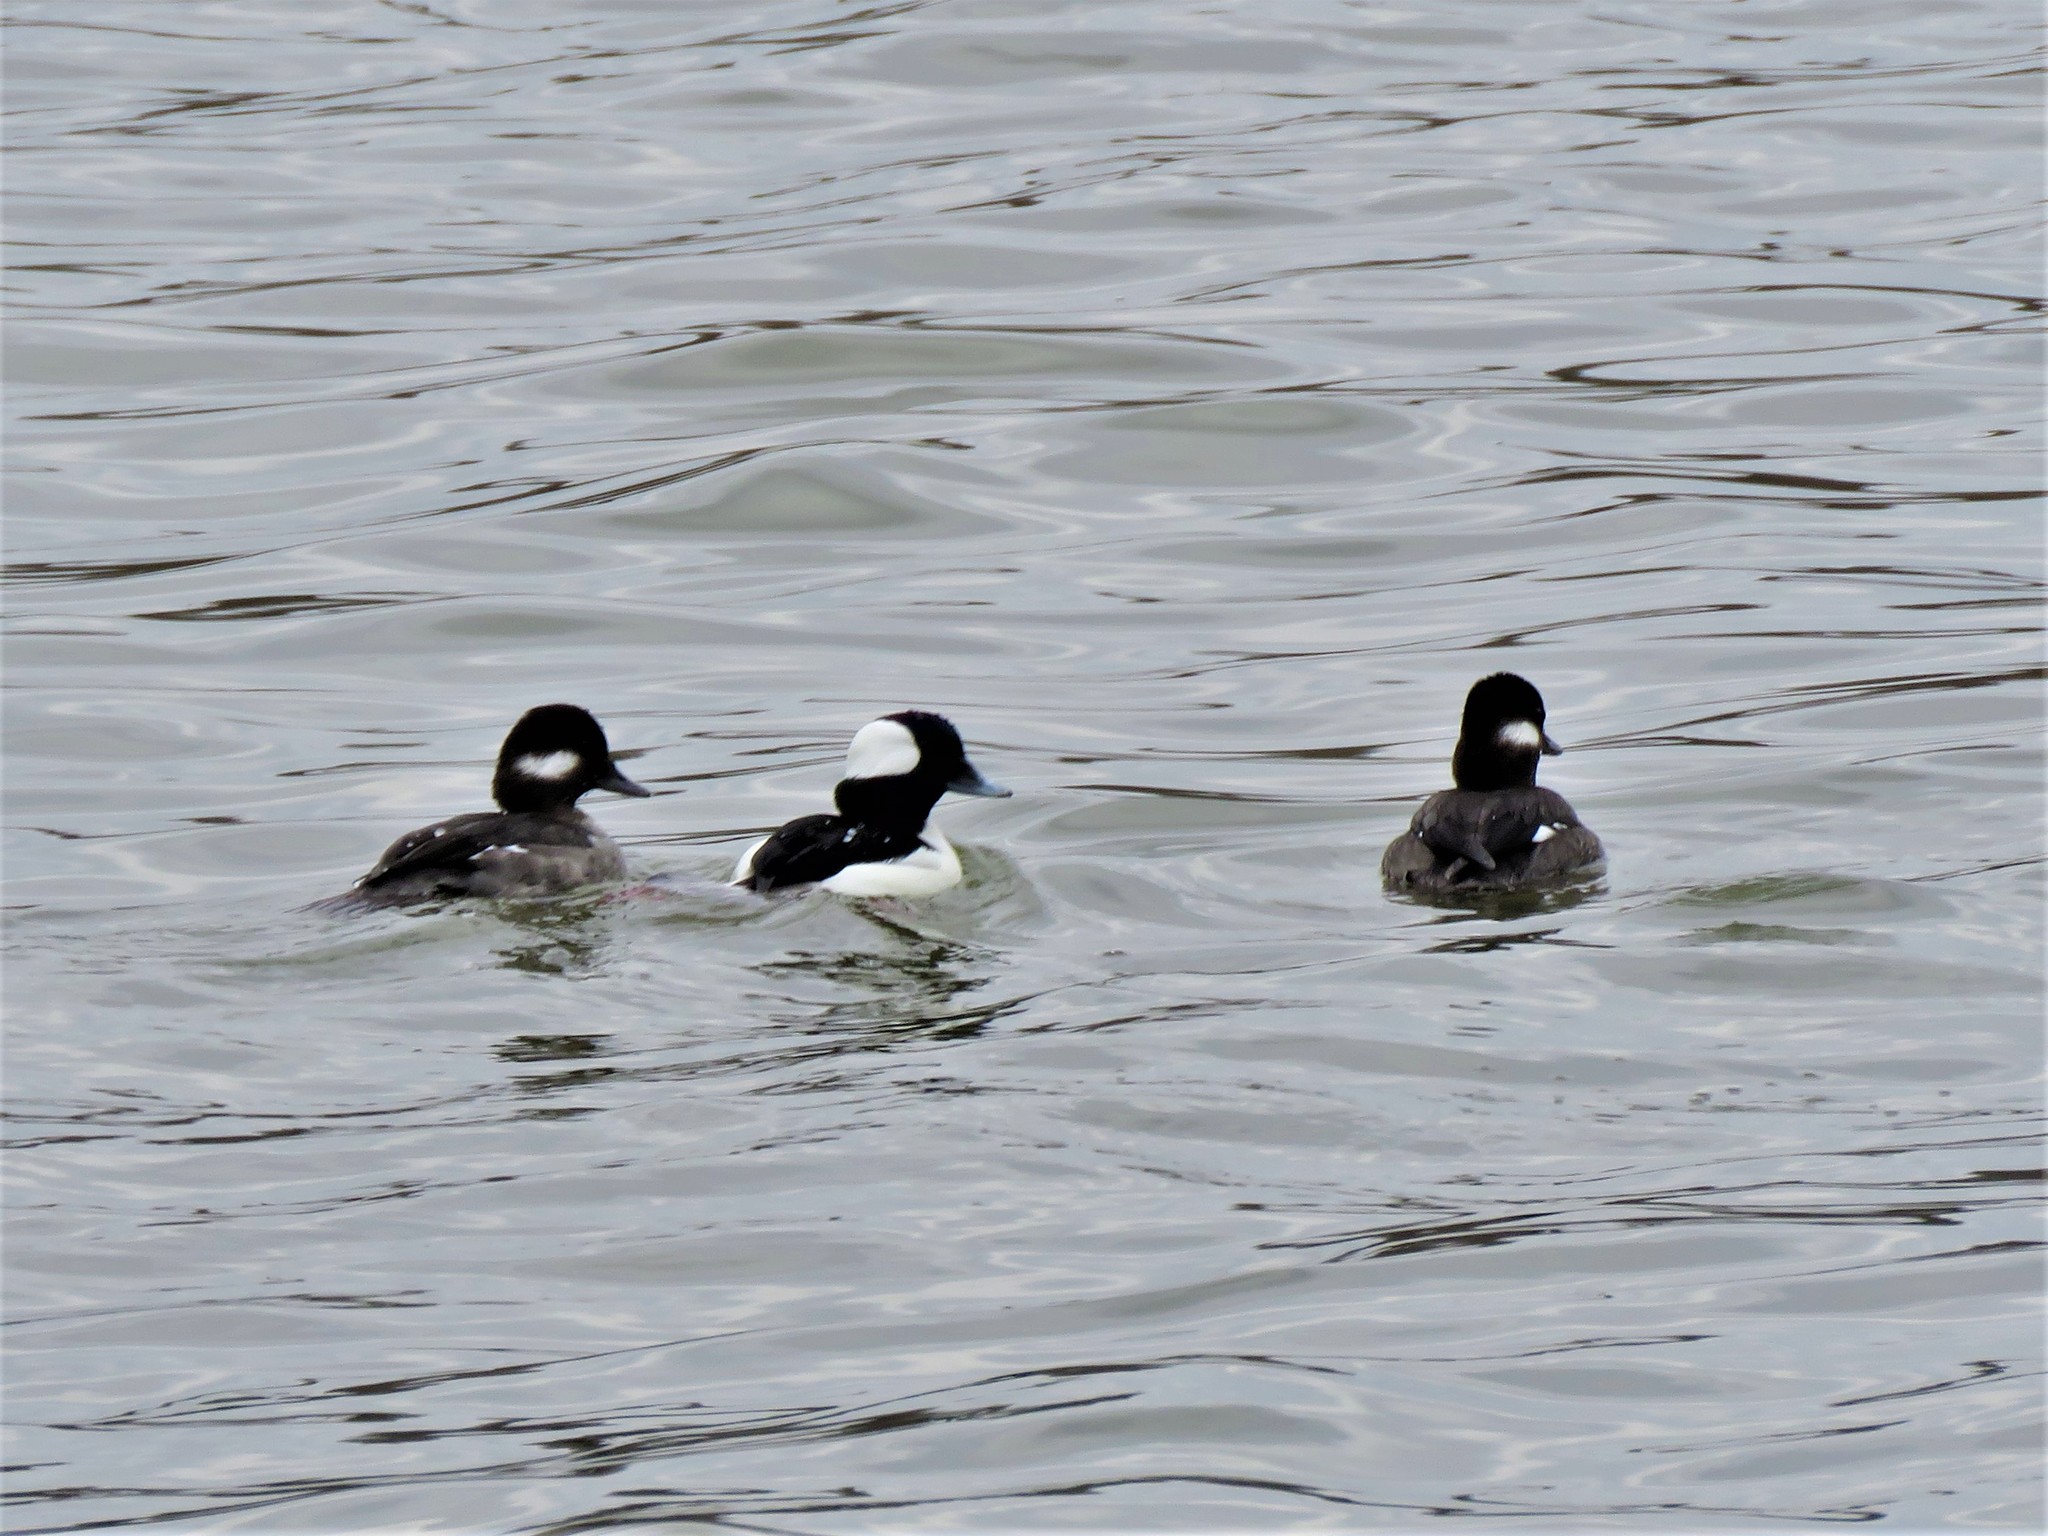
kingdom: Animalia
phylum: Chordata
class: Aves
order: Anseriformes
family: Anatidae
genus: Bucephala
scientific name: Bucephala albeola
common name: Bufflehead
